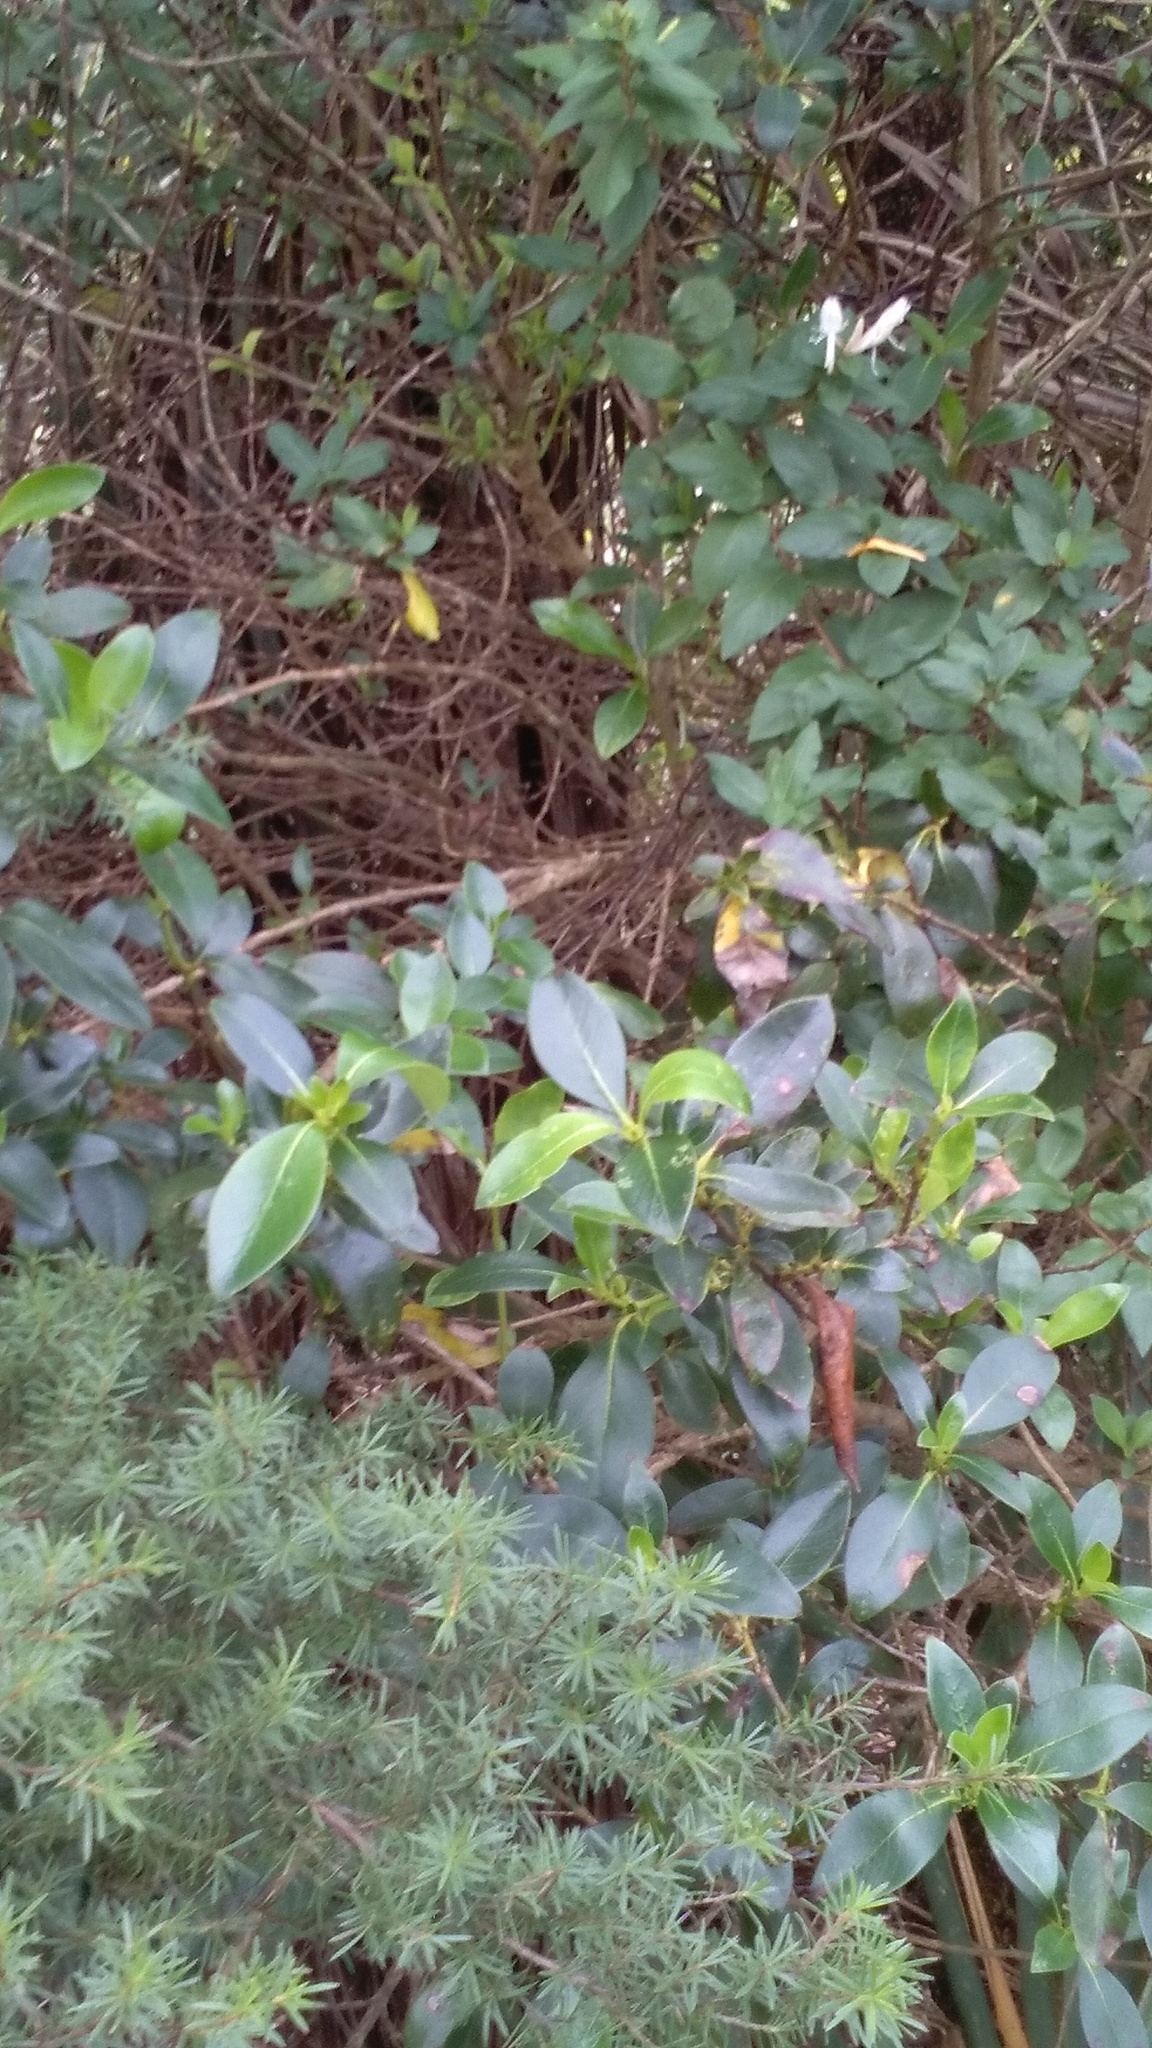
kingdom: Plantae
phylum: Tracheophyta
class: Magnoliopsida
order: Gentianales
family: Rubiaceae
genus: Coprosma
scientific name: Coprosma robusta
